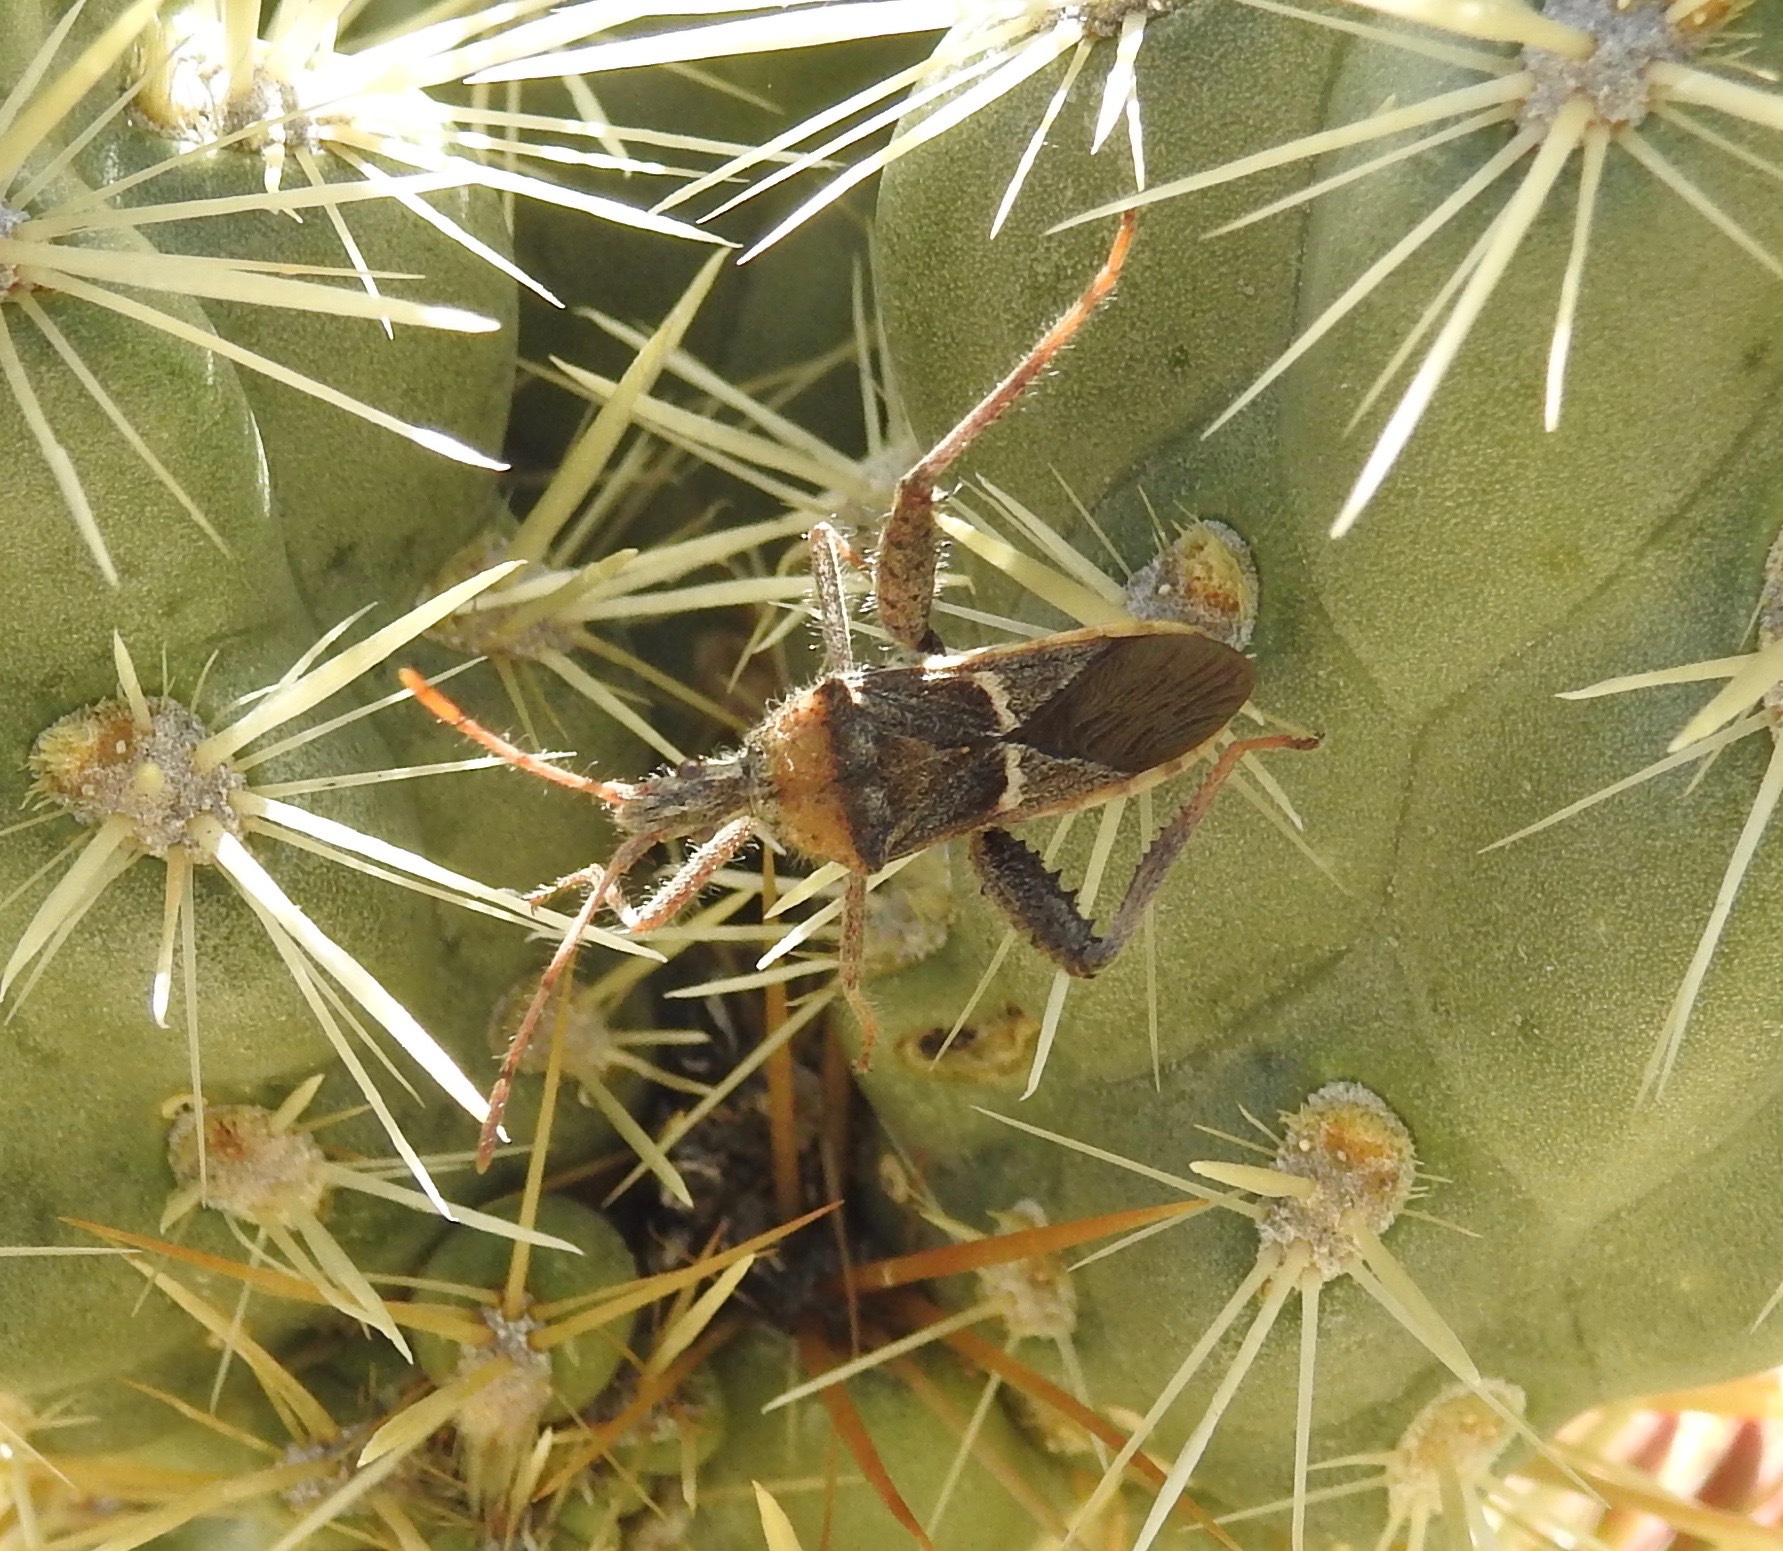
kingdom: Animalia
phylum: Arthropoda
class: Insecta
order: Hemiptera
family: Coreidae
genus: Narnia
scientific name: Narnia snowi
